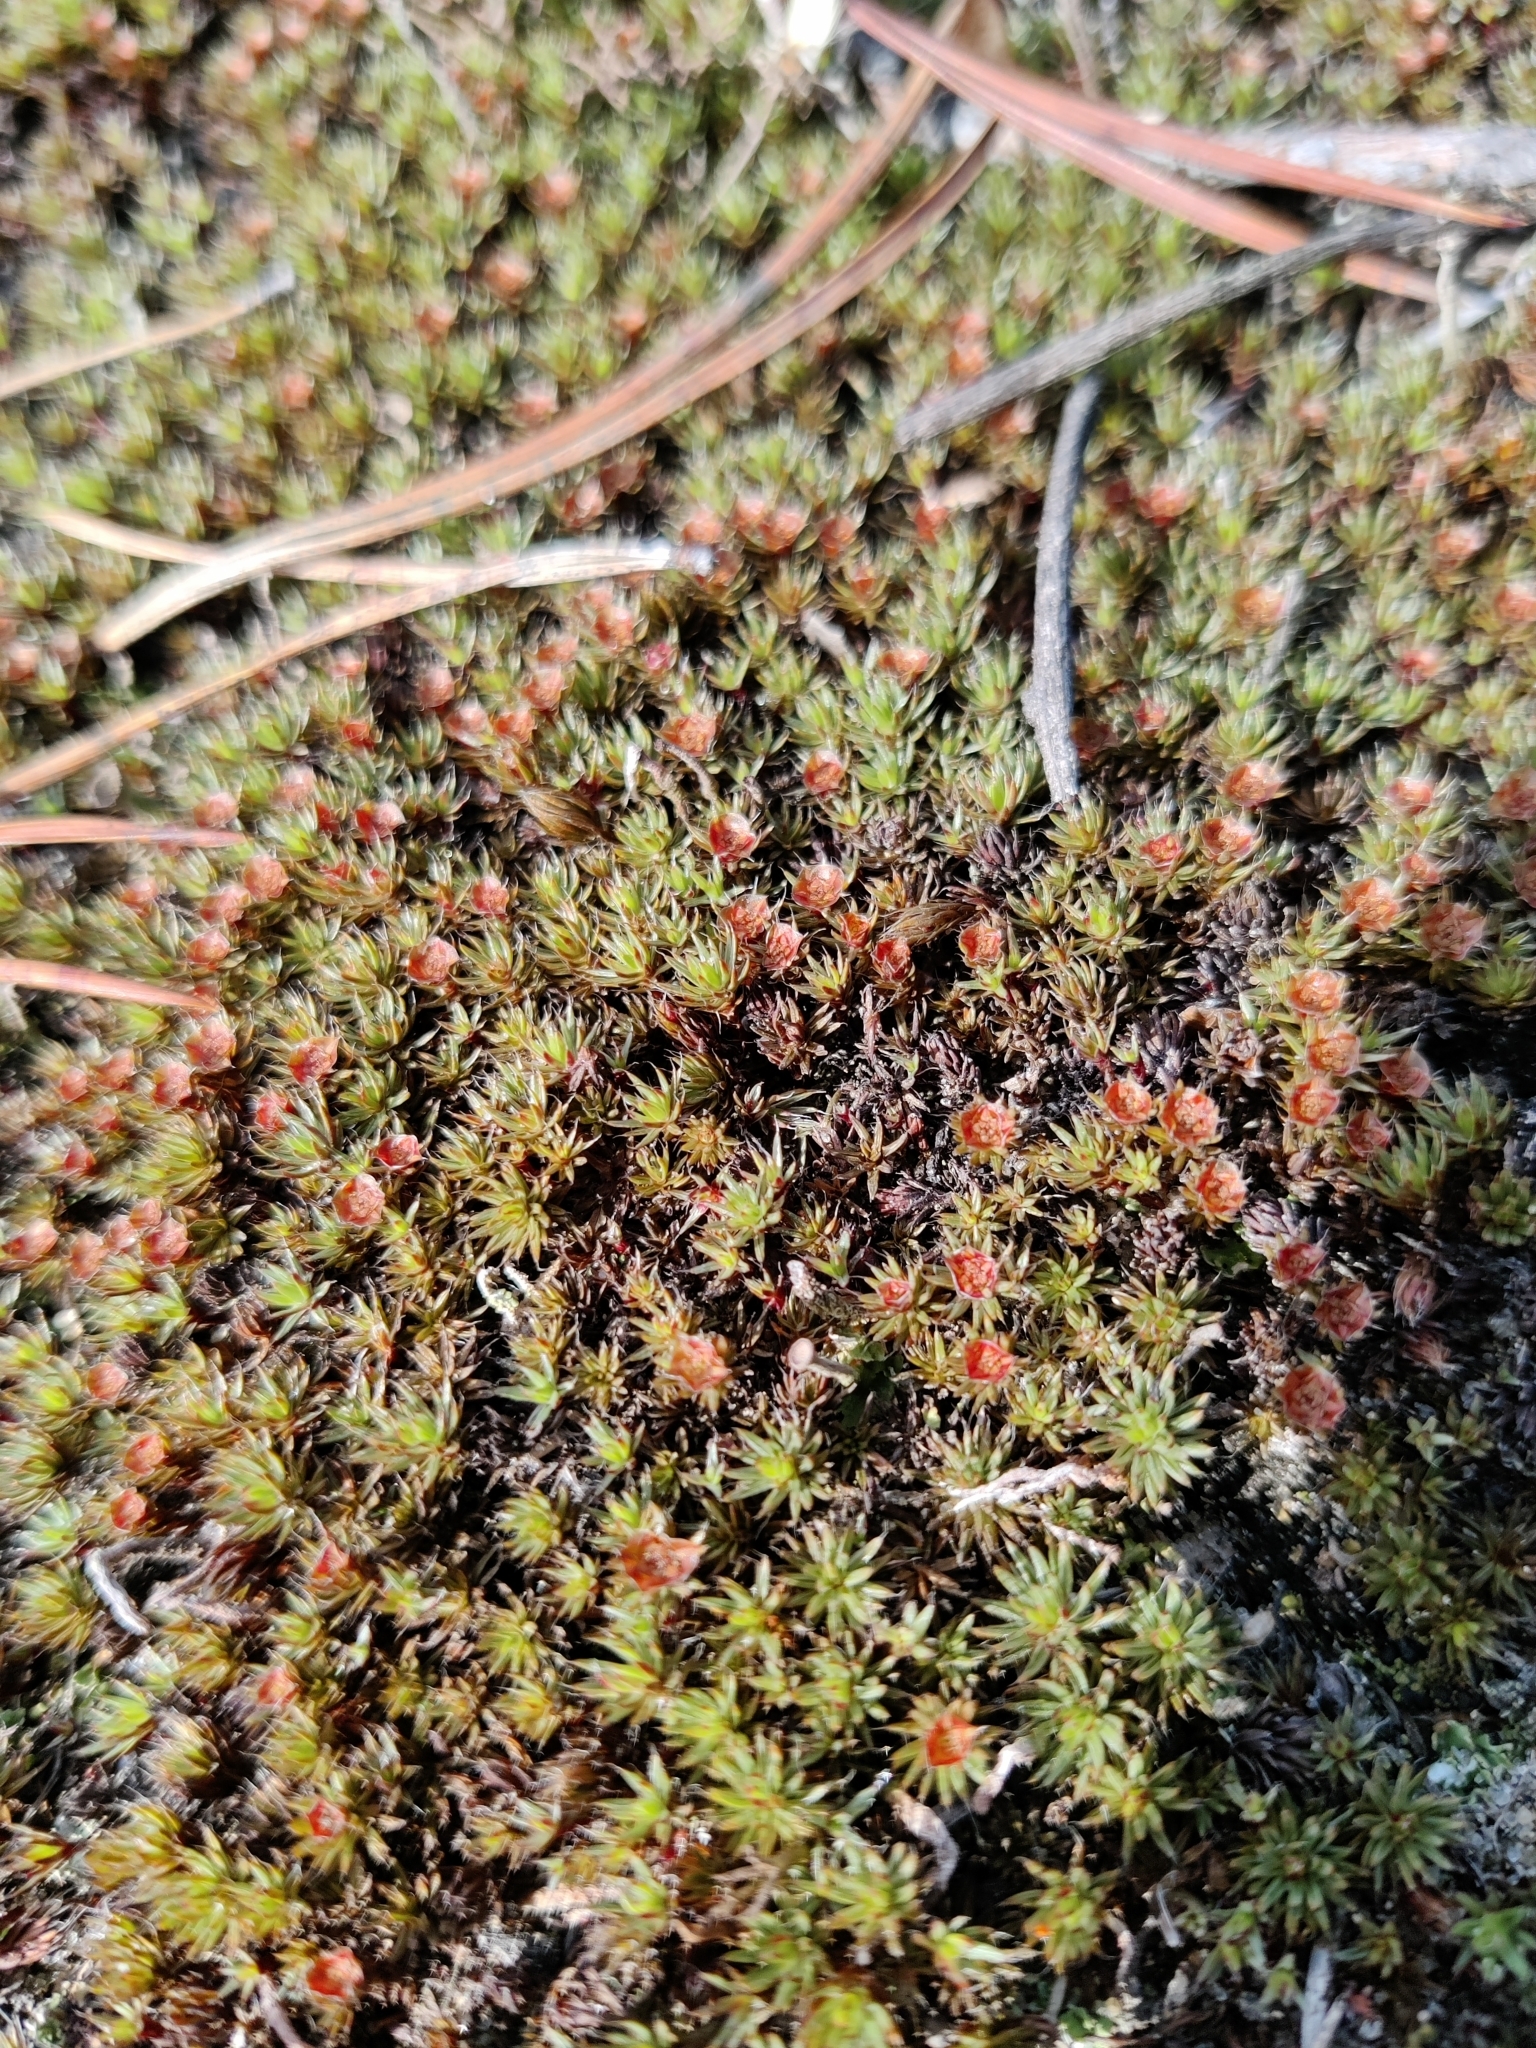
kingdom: Plantae
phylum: Bryophyta
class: Polytrichopsida
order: Polytrichales
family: Polytrichaceae
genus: Polytrichum
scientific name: Polytrichum piliferum
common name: Bristly haircap
